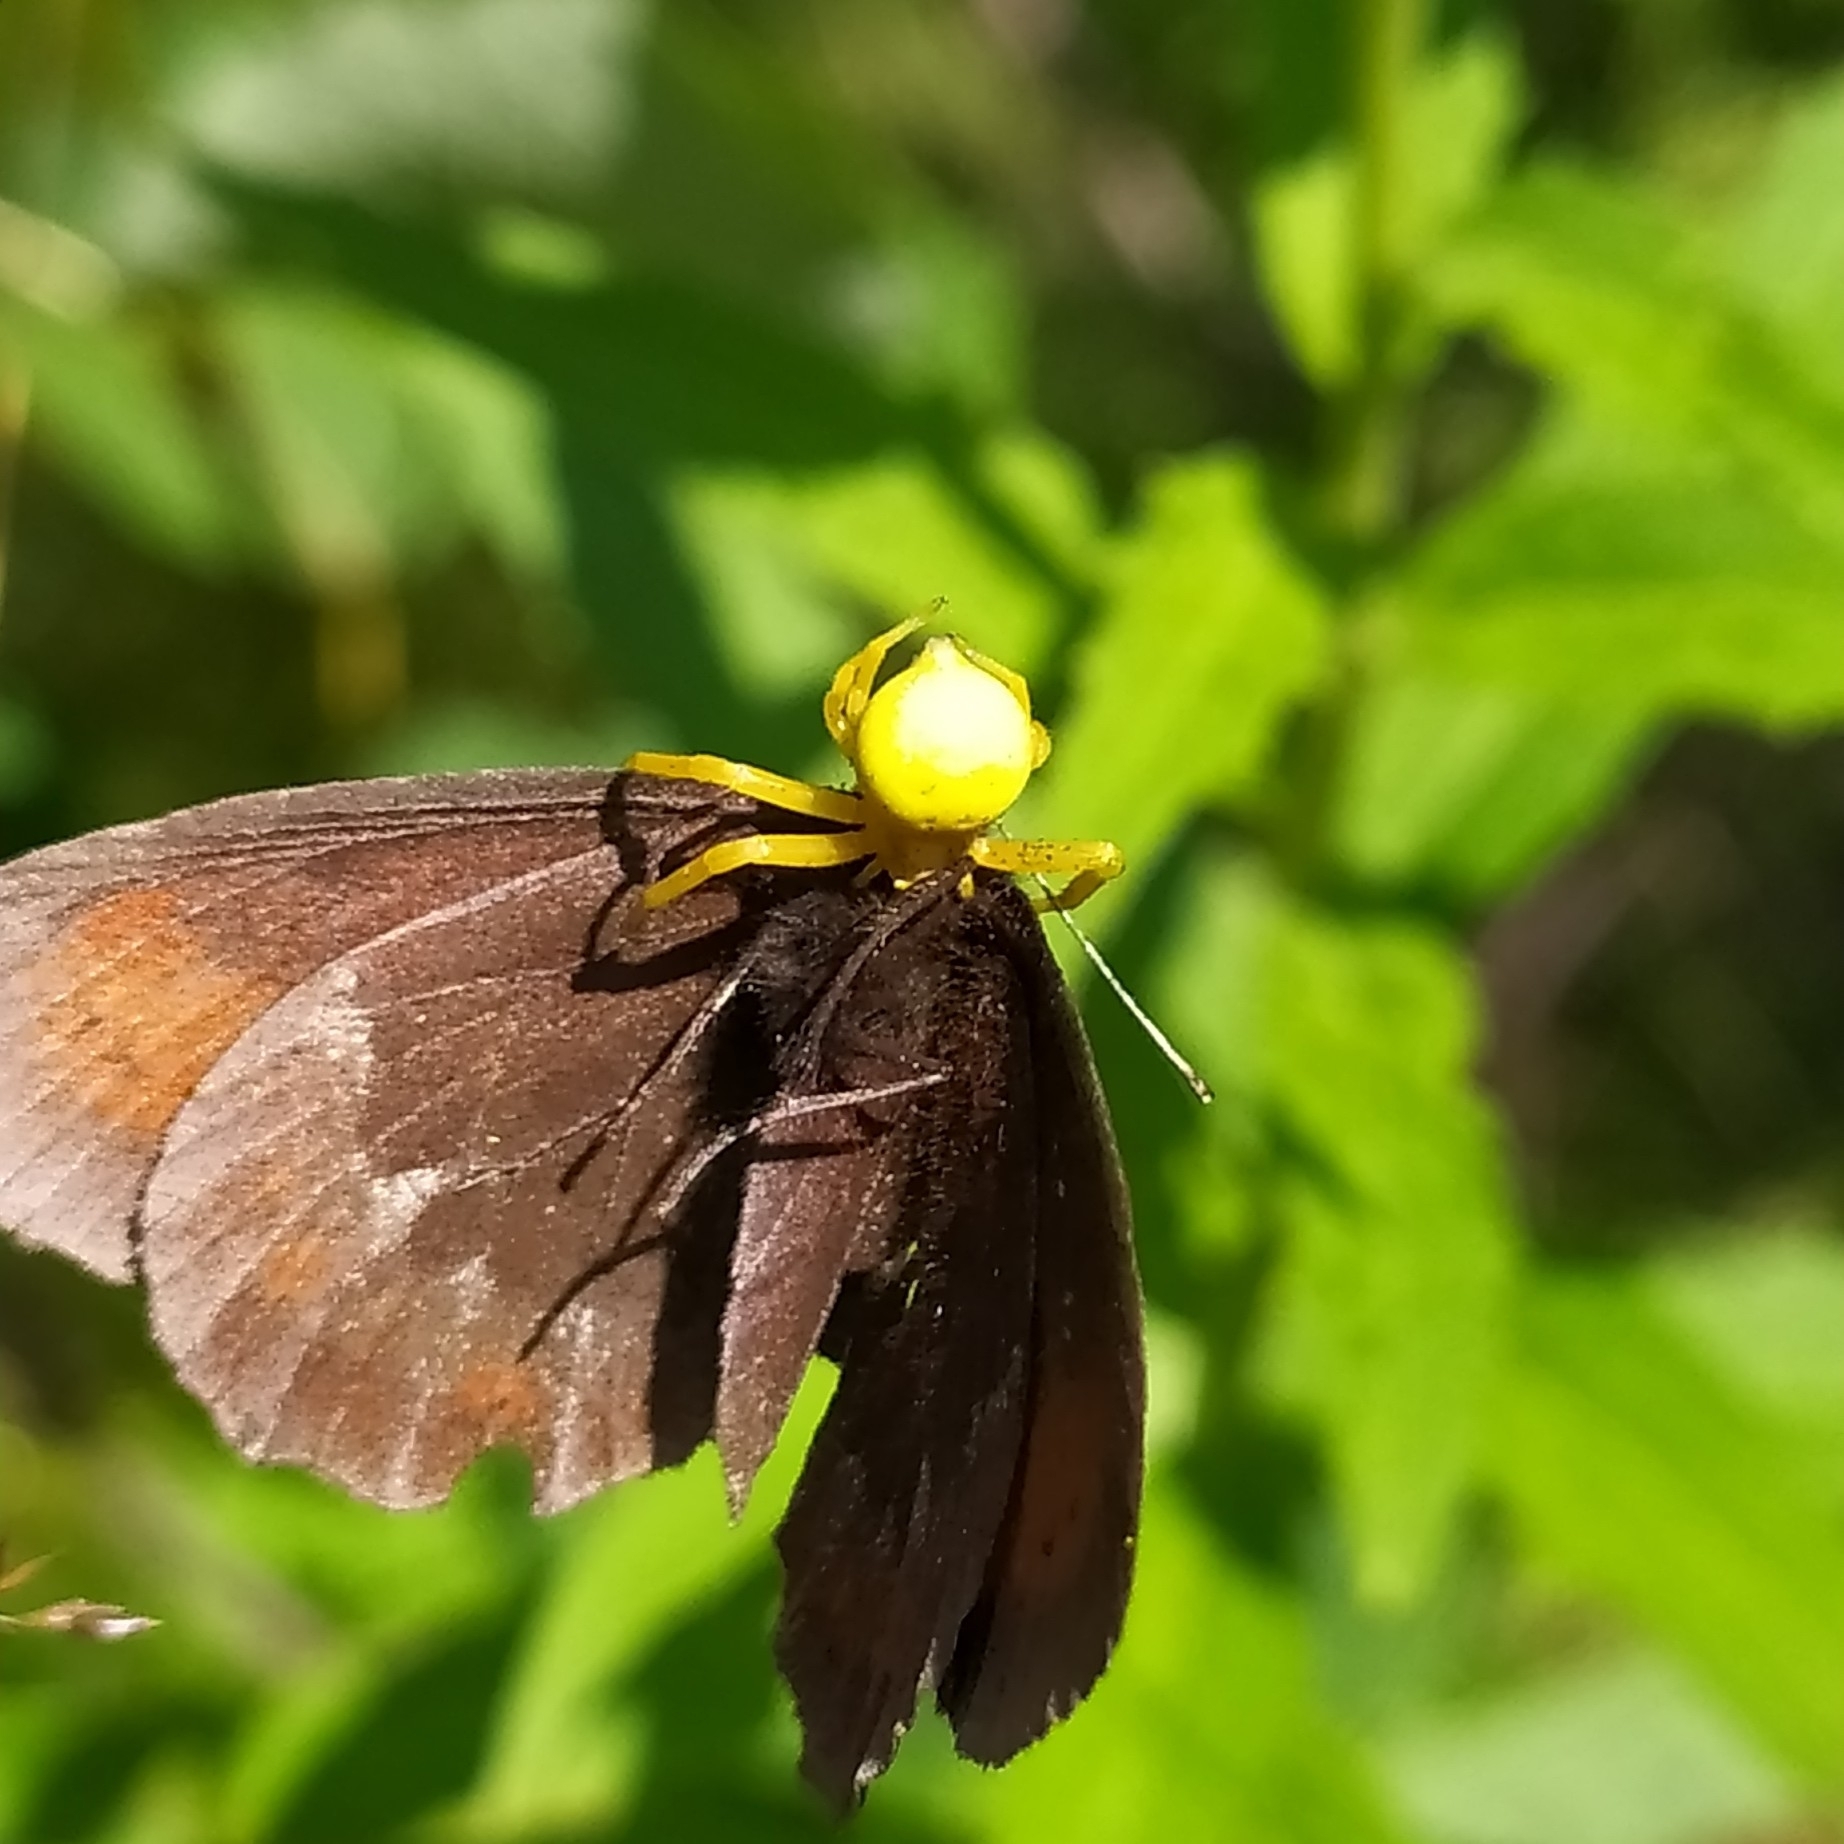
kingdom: Animalia
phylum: Arthropoda
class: Arachnida
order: Araneae
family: Thomisidae
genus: Misumena
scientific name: Misumena vatia
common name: Goldenrod crab spider
